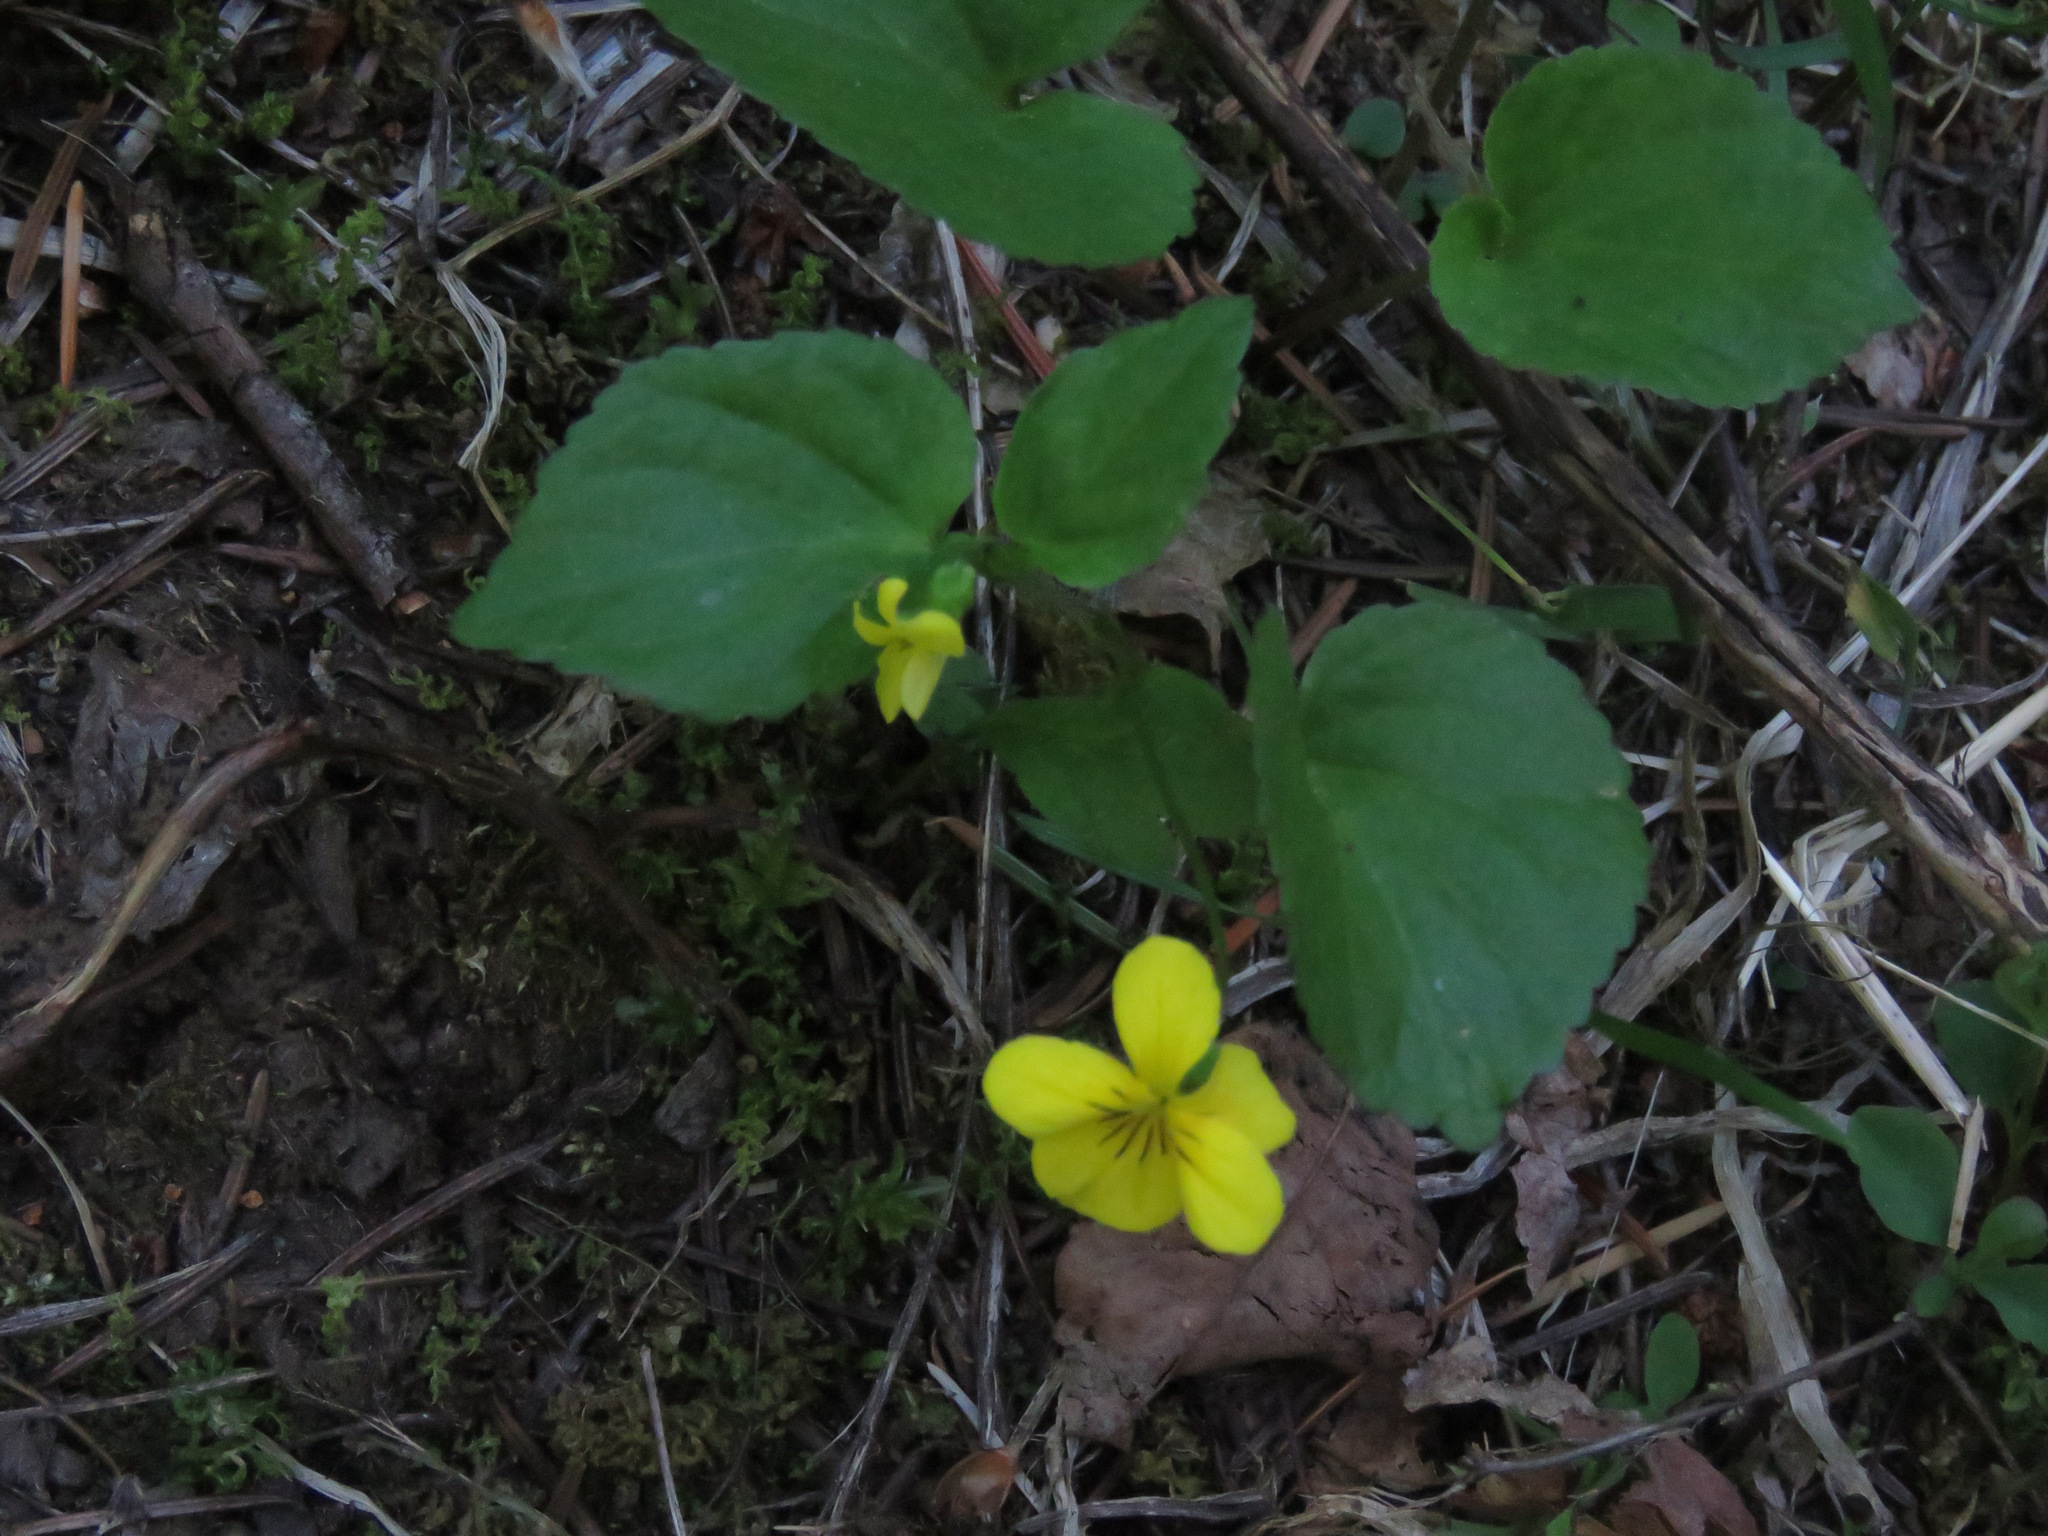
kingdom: Plantae
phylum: Tracheophyta
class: Magnoliopsida
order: Malpighiales
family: Violaceae
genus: Viola
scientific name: Viola glabella
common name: Stream violet
